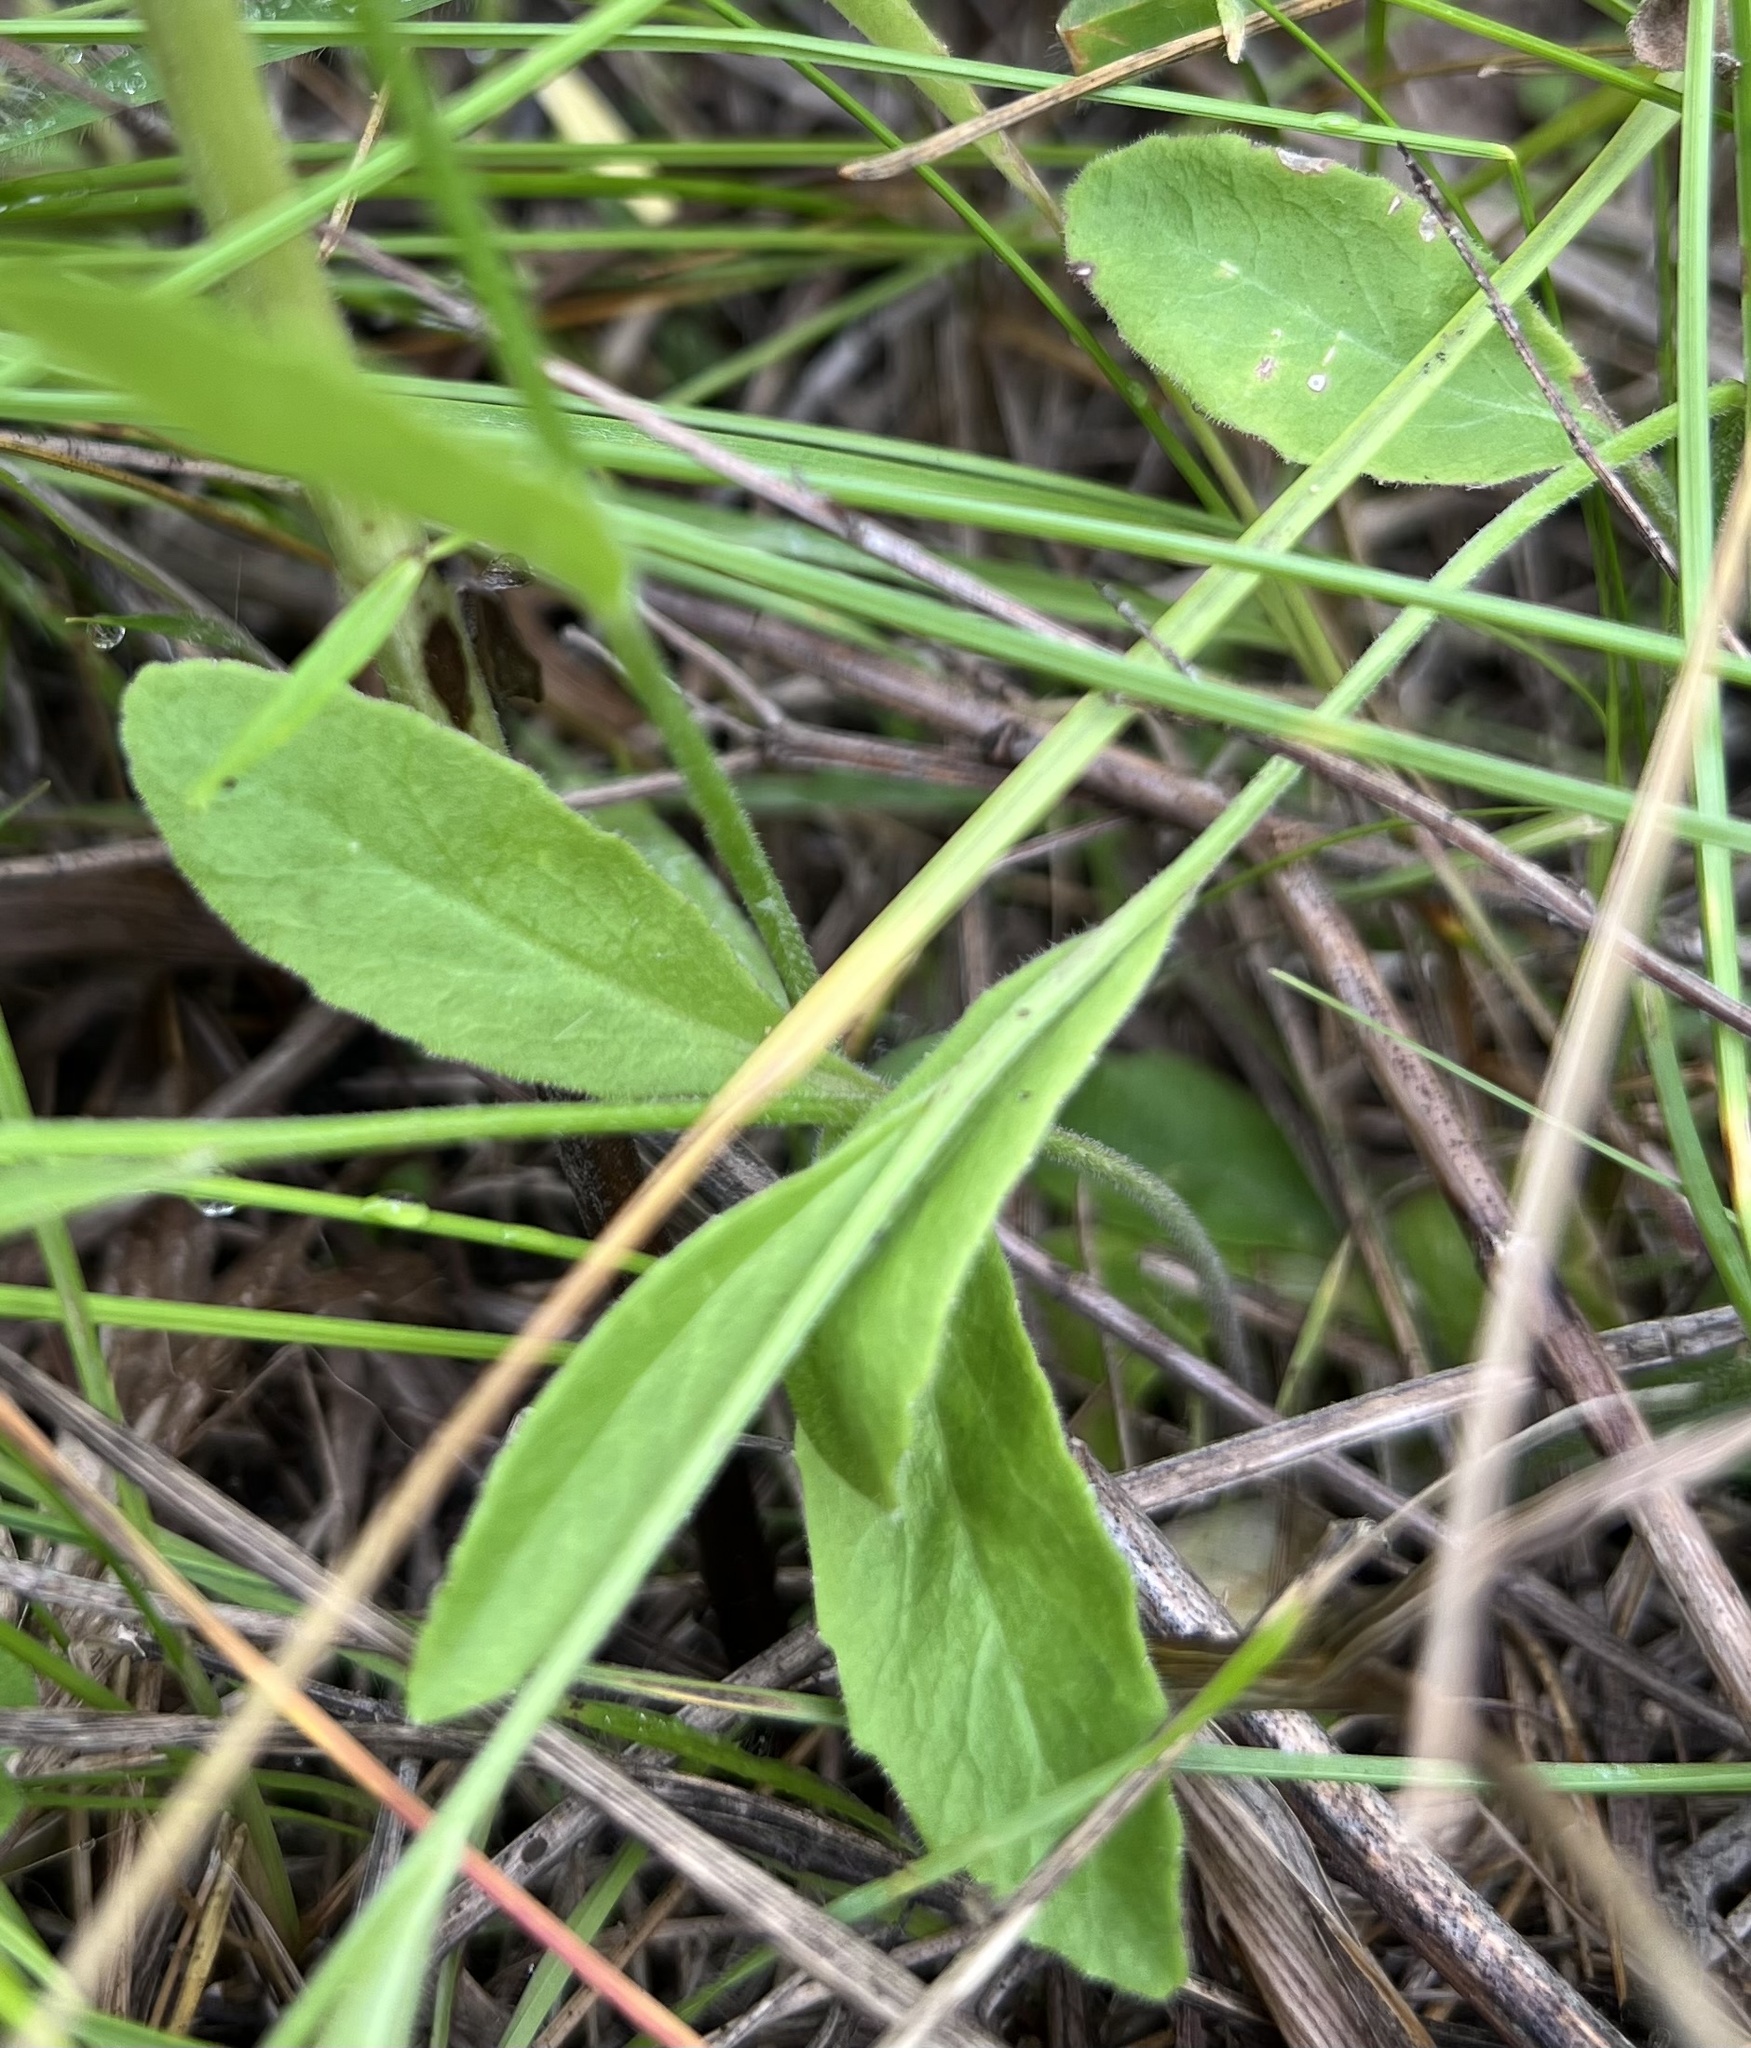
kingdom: Plantae
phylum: Tracheophyta
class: Magnoliopsida
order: Asterales
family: Campanulaceae
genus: Lobelia
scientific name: Lobelia spicata
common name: Pale-spike lobelia
